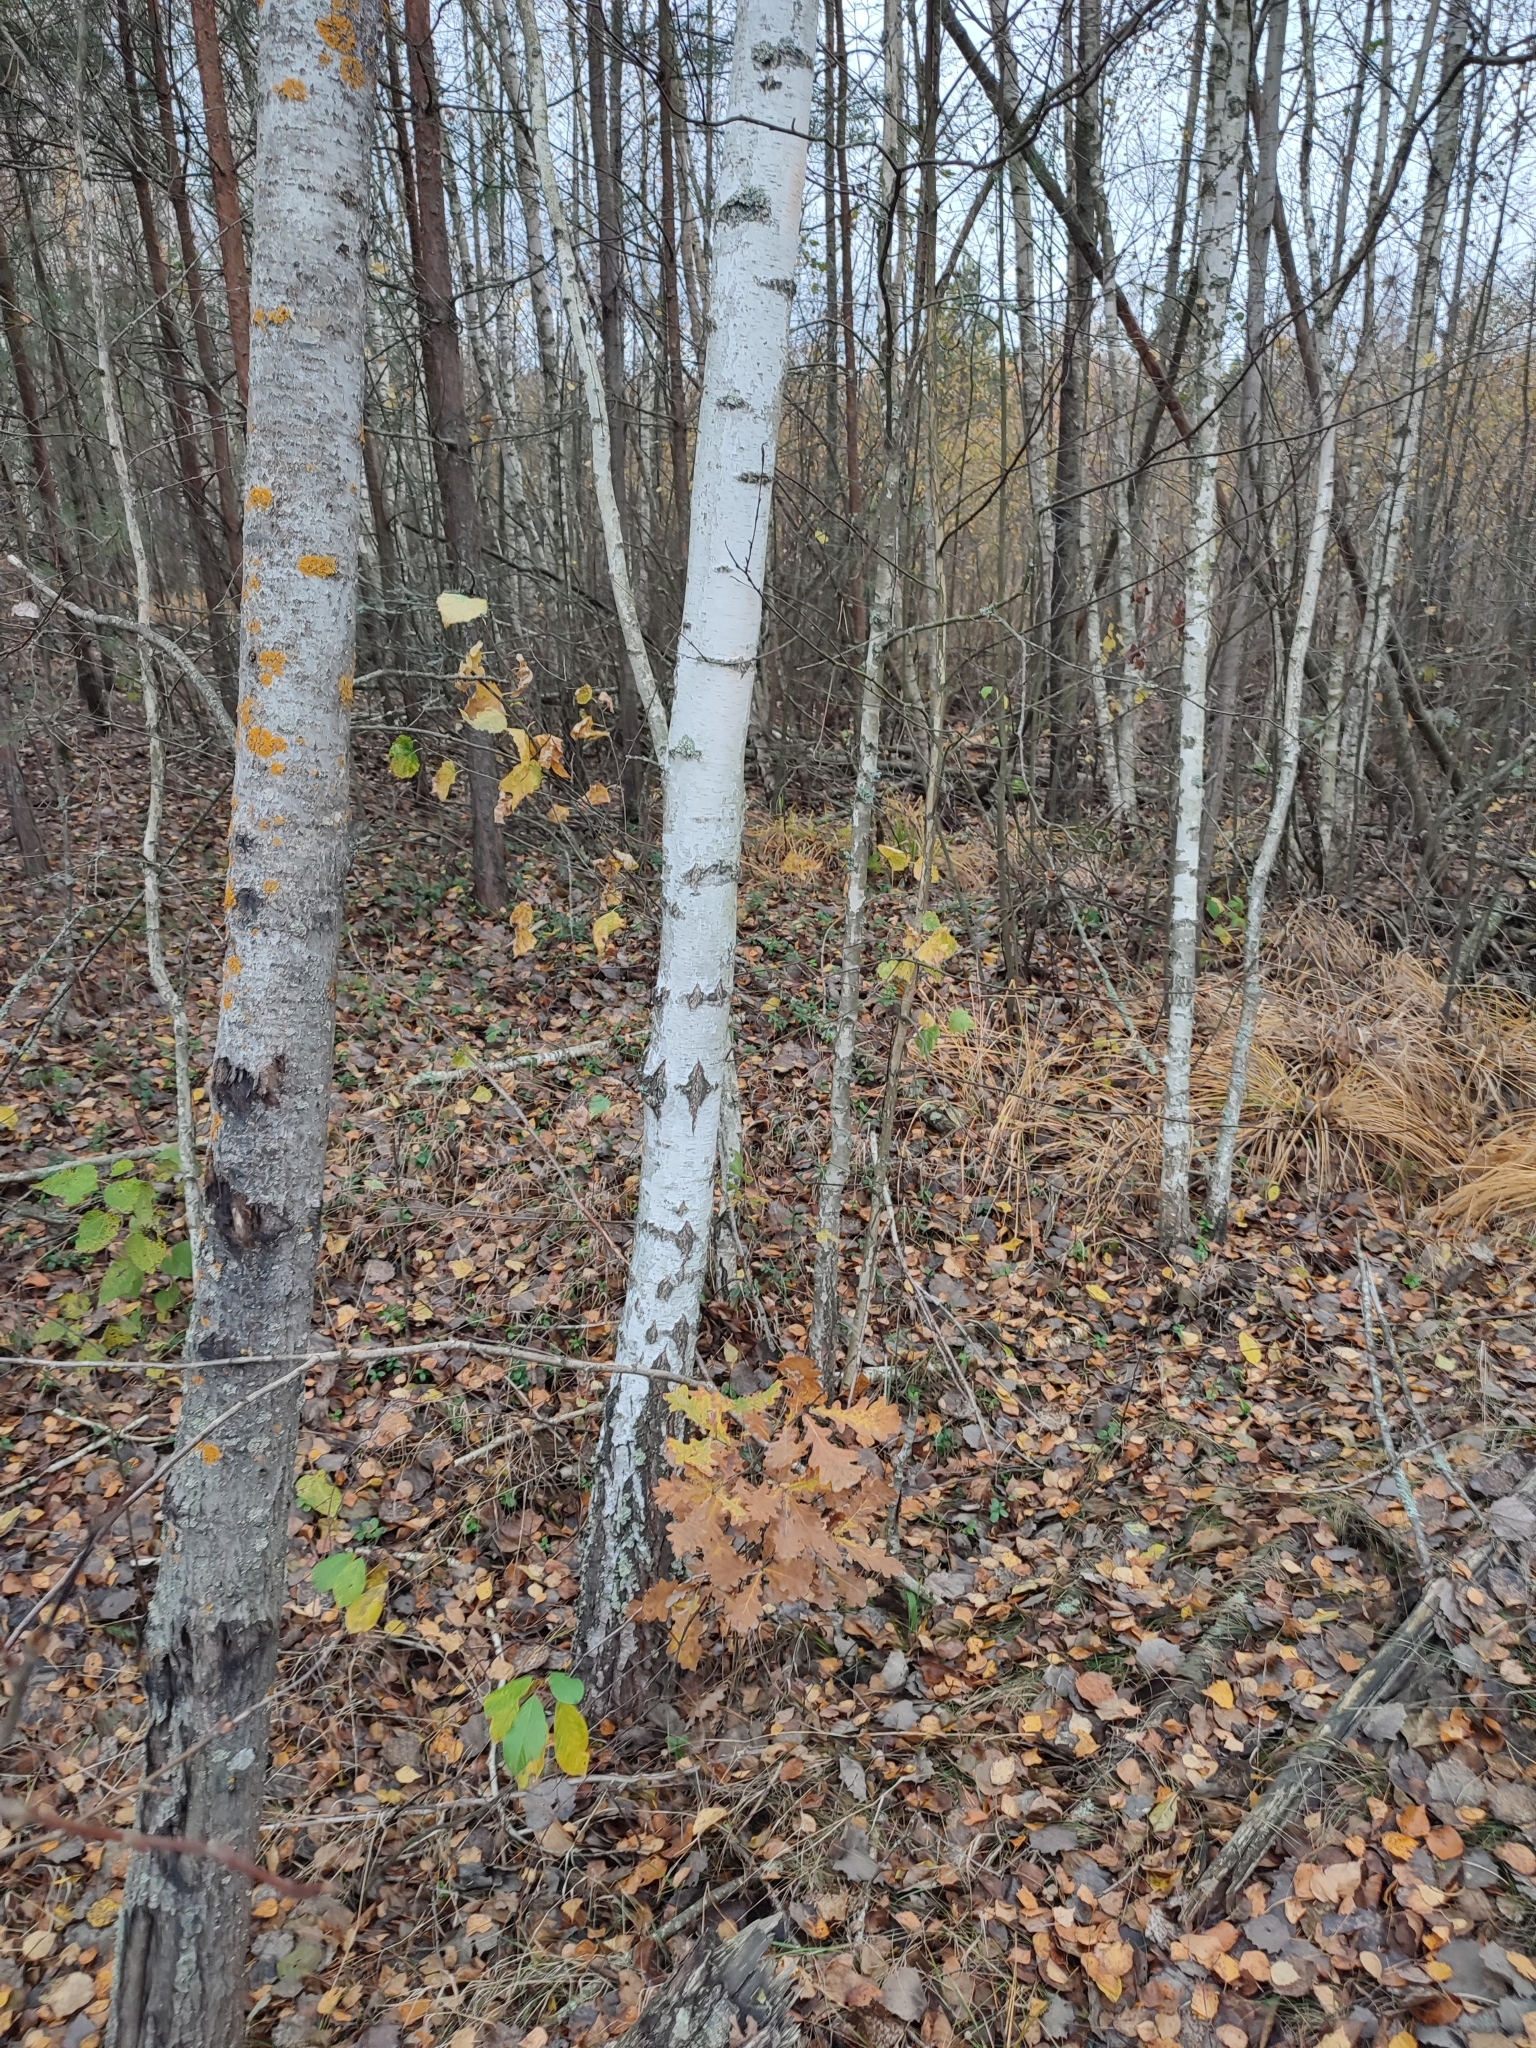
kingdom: Plantae
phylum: Tracheophyta
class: Magnoliopsida
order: Fagales
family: Fagaceae
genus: Quercus
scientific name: Quercus robur
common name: Pedunculate oak
